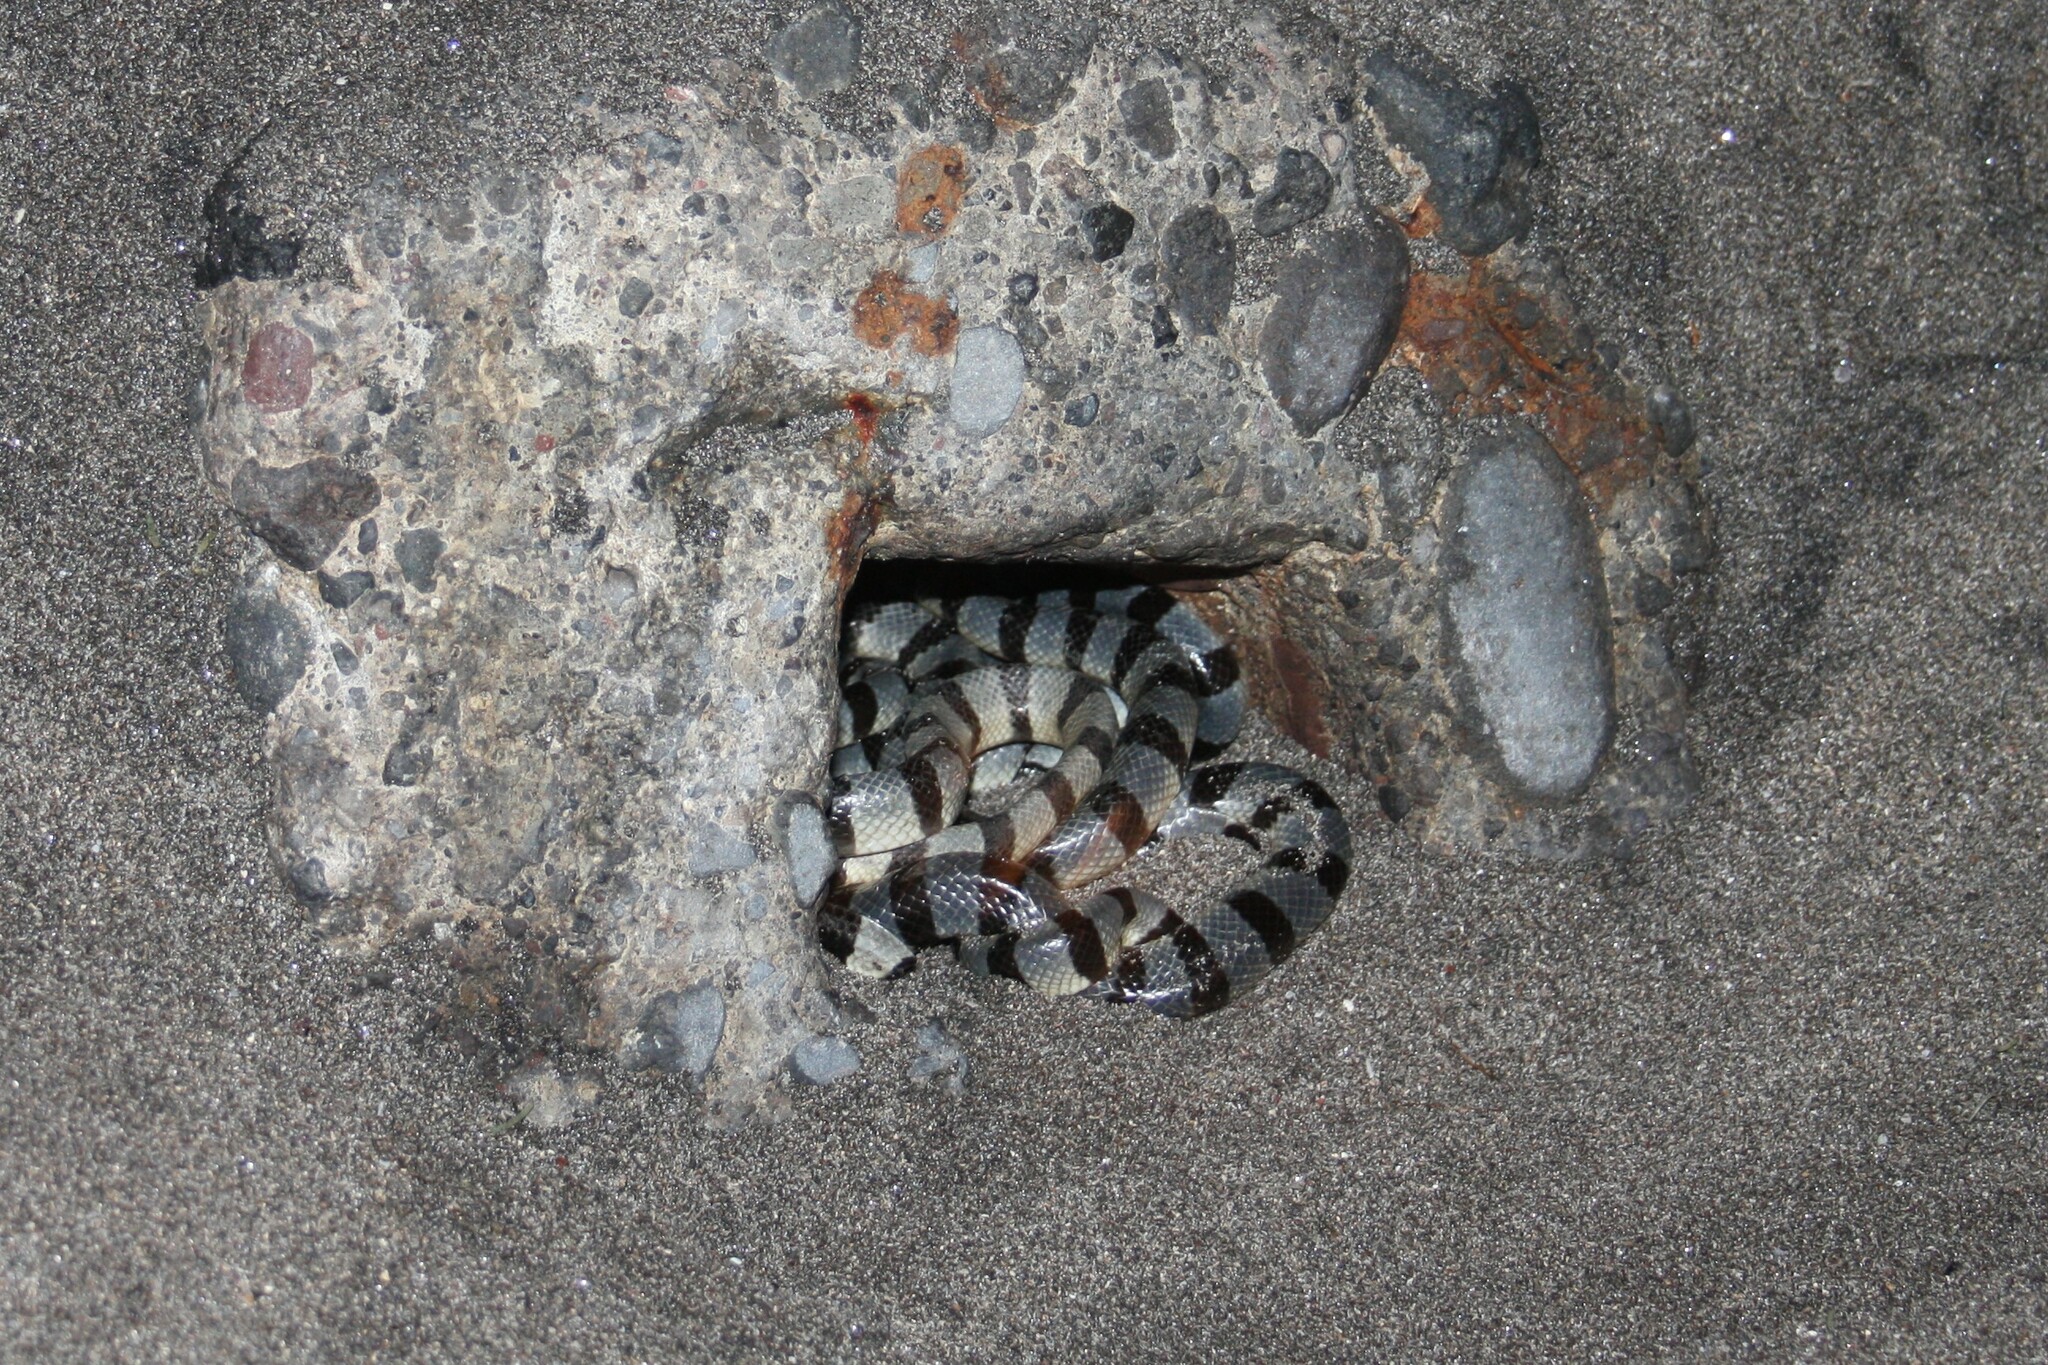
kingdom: Animalia
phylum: Chordata
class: Squamata
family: Elapidae
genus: Laticauda
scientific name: Laticauda colubrina
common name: Yellow-lipped sea krait
